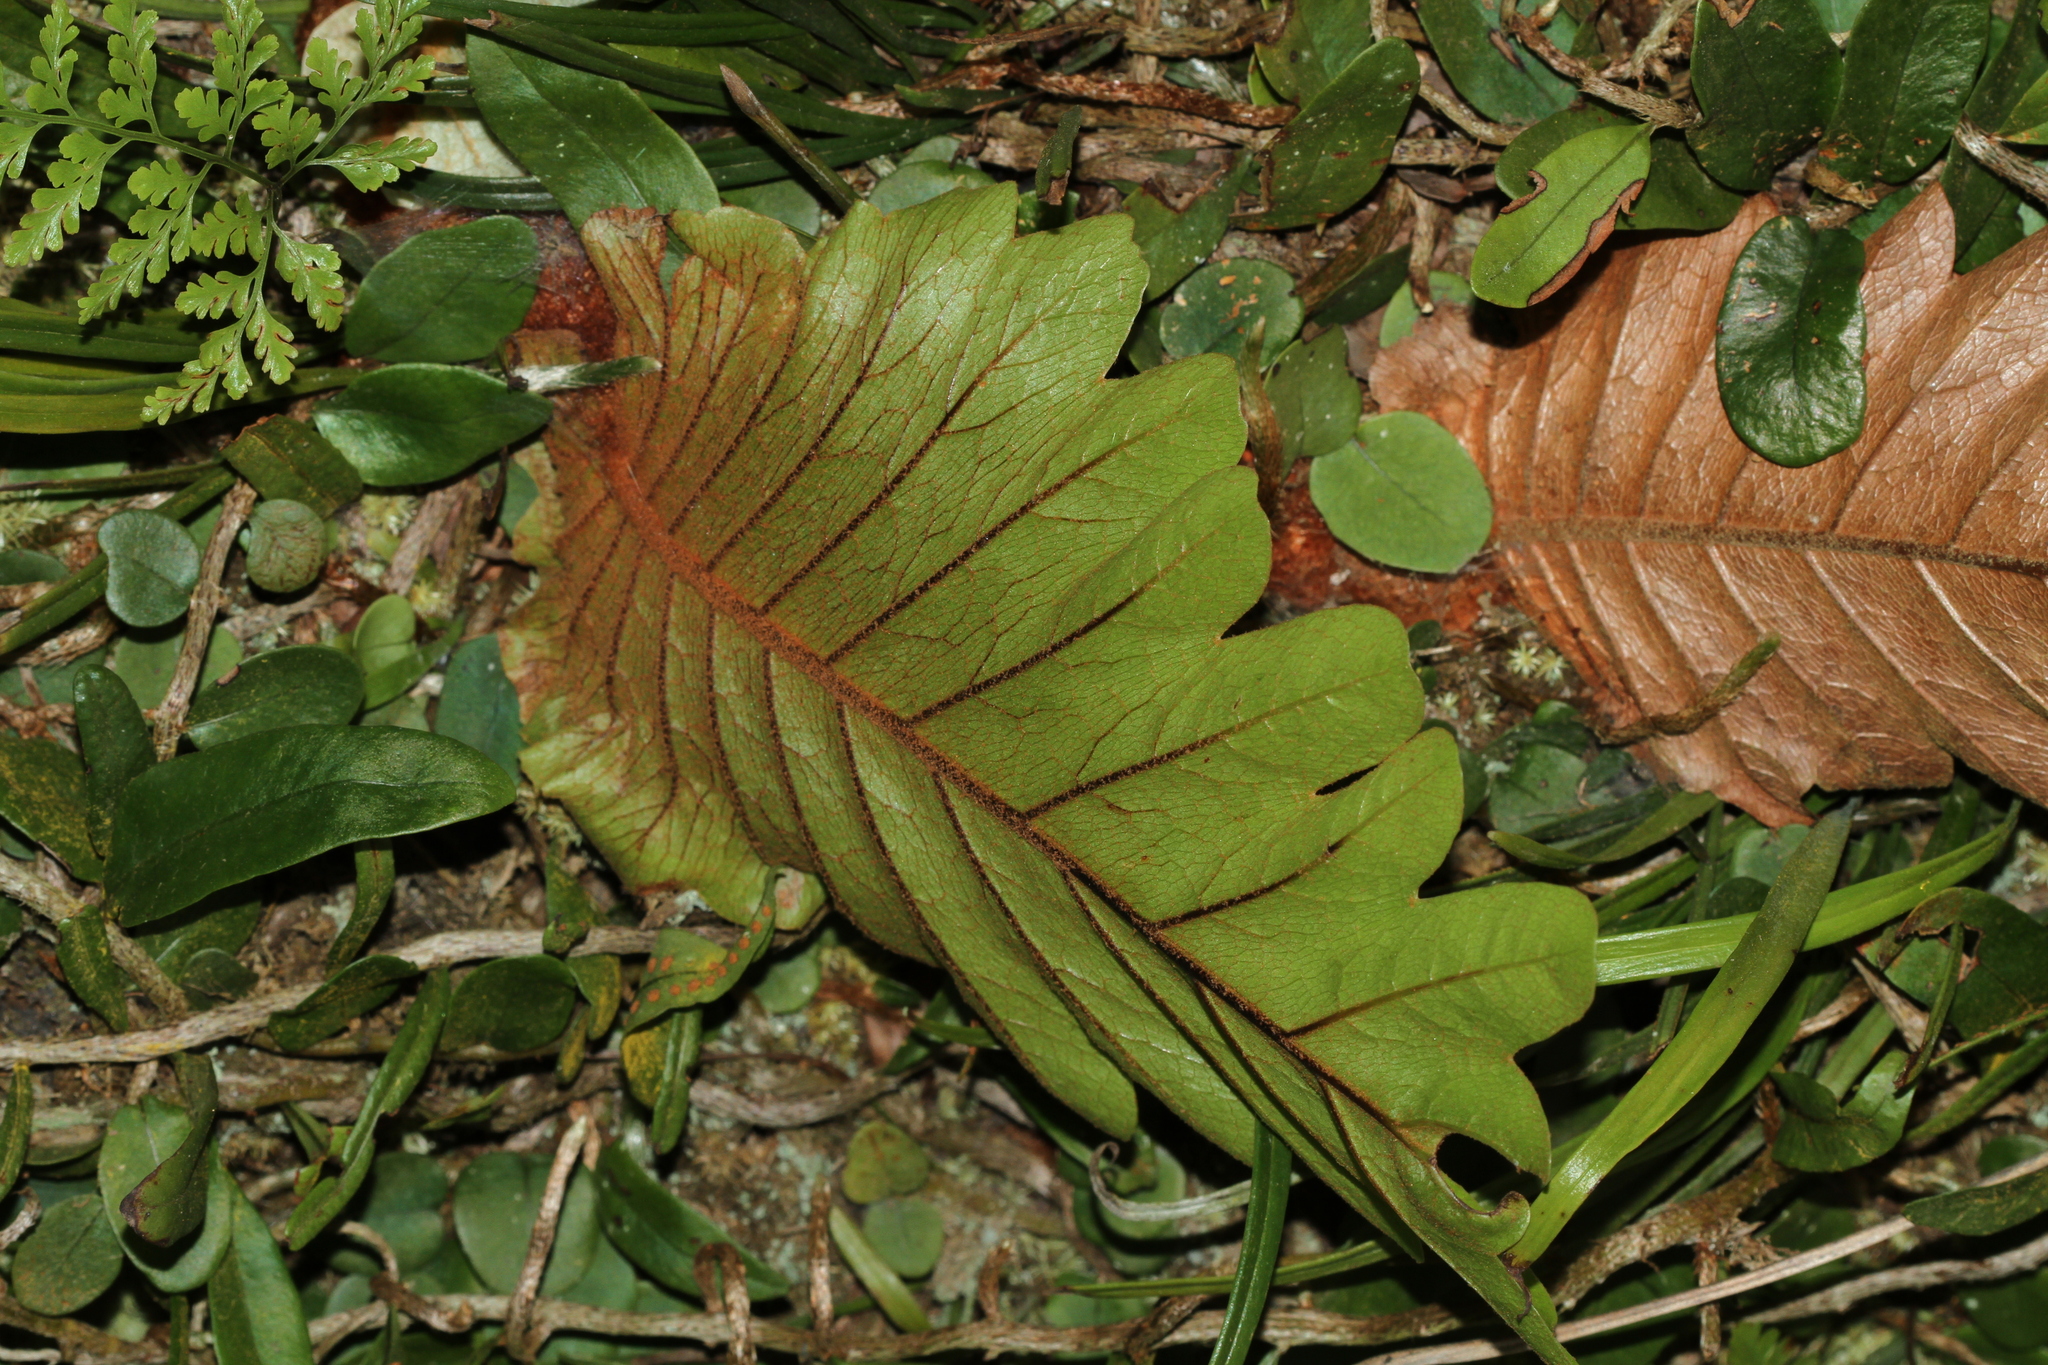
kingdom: Plantae
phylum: Tracheophyta
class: Polypodiopsida
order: Polypodiales
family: Polypodiaceae
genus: Drynaria
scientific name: Drynaria laurentii
